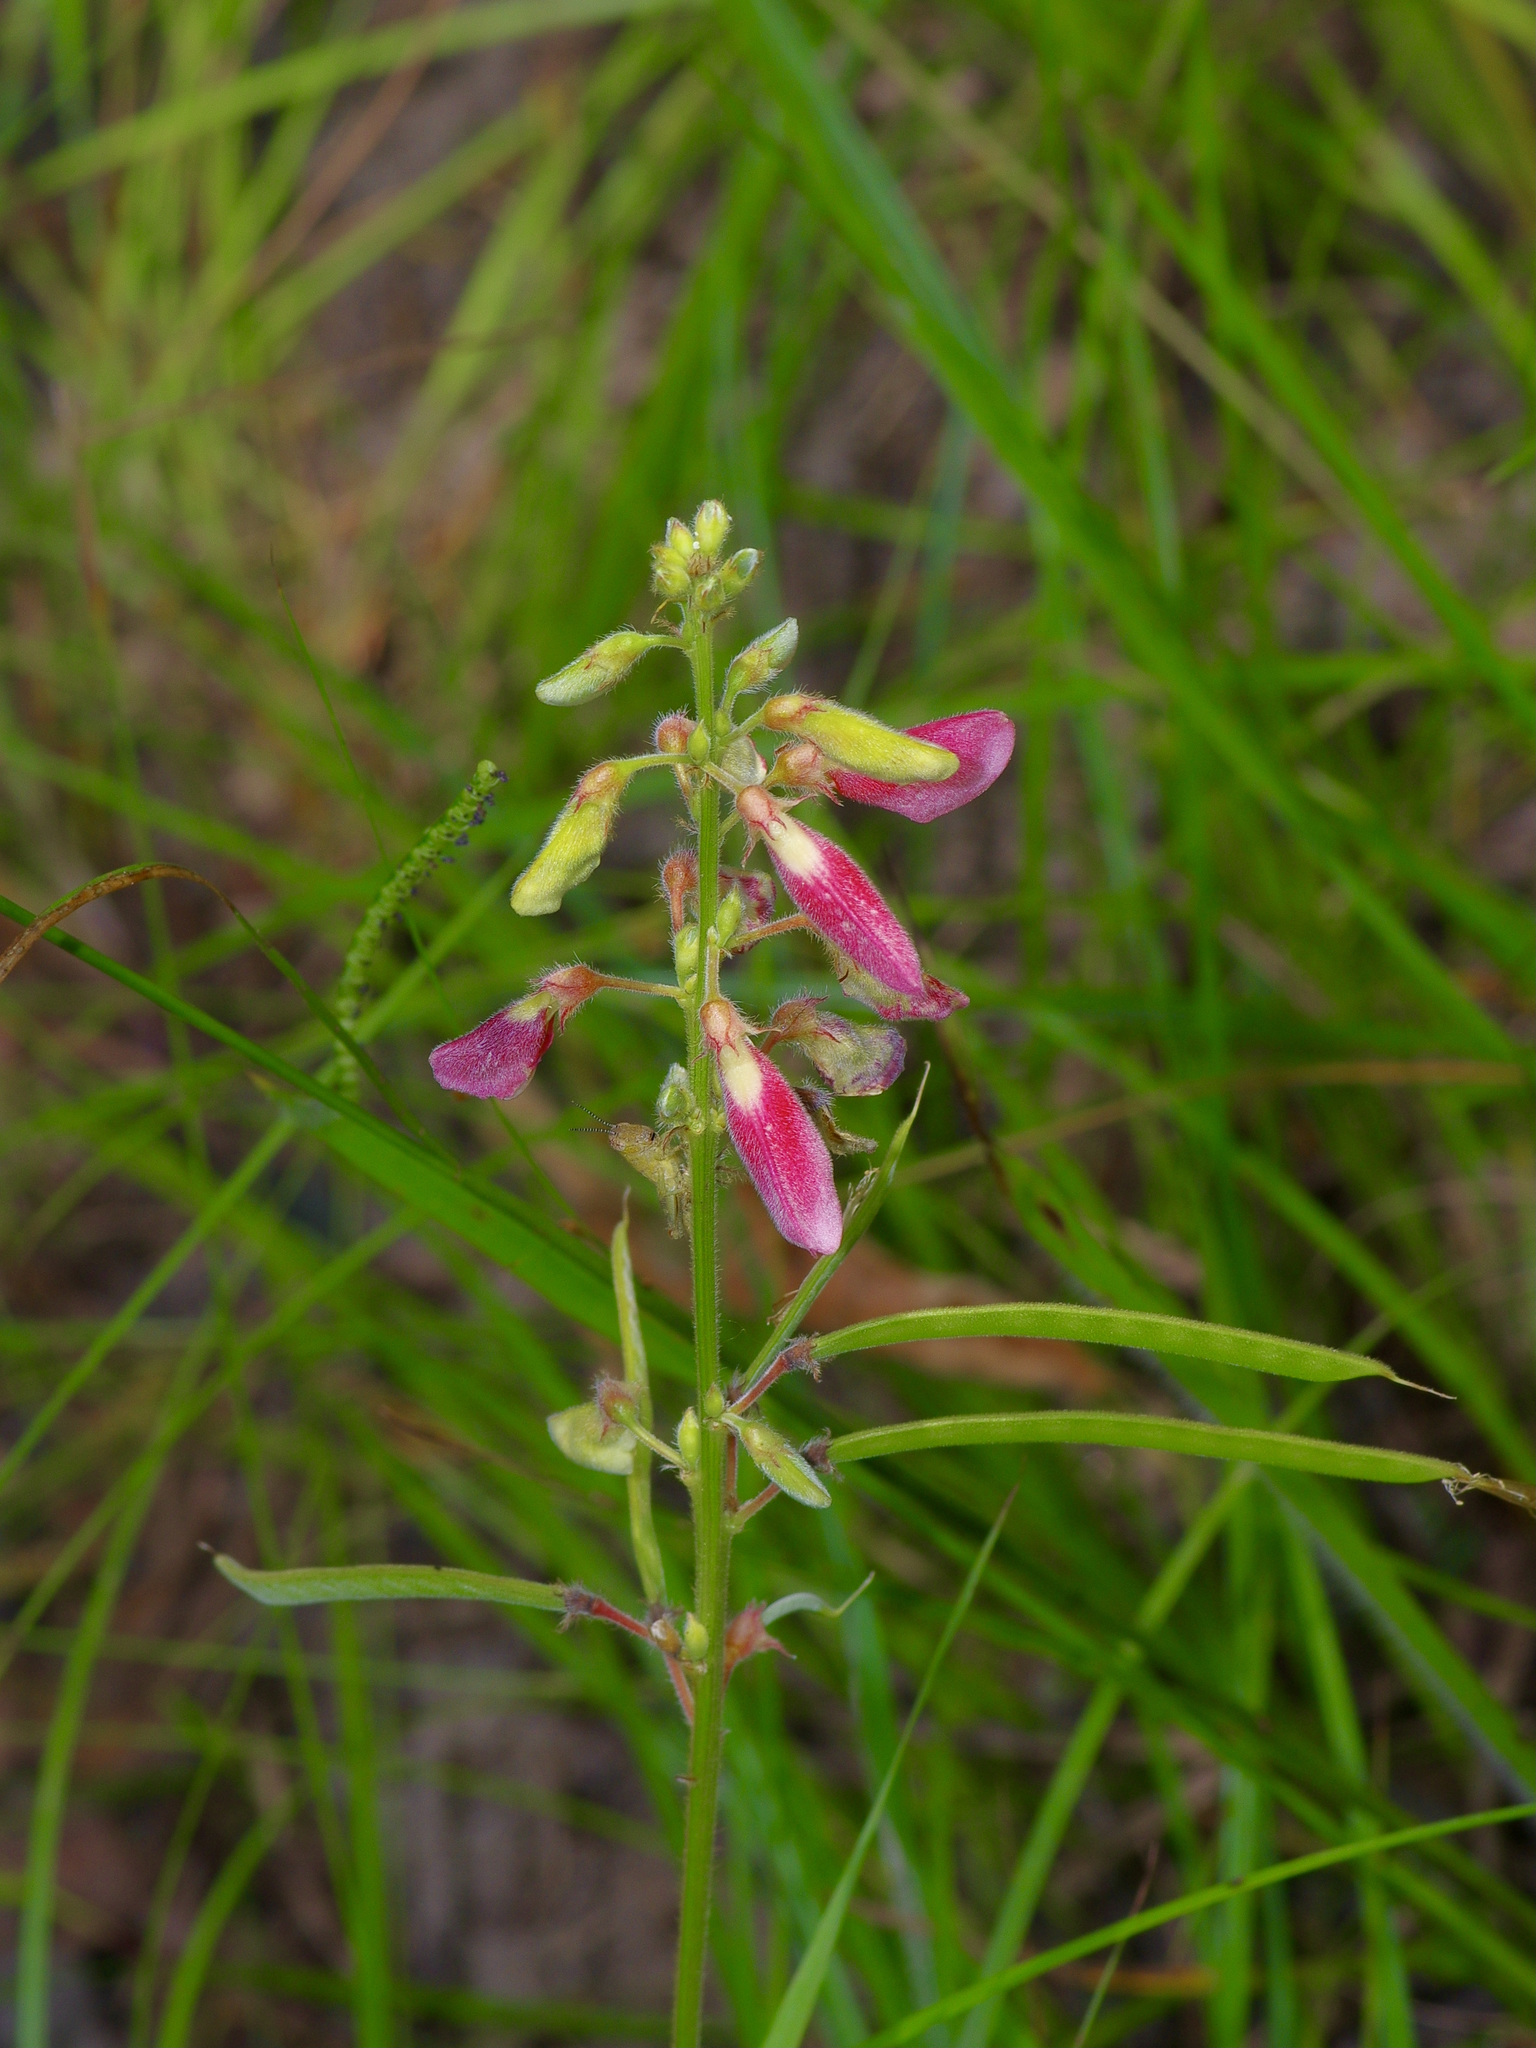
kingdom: Plantae
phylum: Tracheophyta
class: Magnoliopsida
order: Fabales
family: Fabaceae
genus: Tephrosia
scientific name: Tephrosia onobrychoides
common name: Multi-bloom hoary-pea
